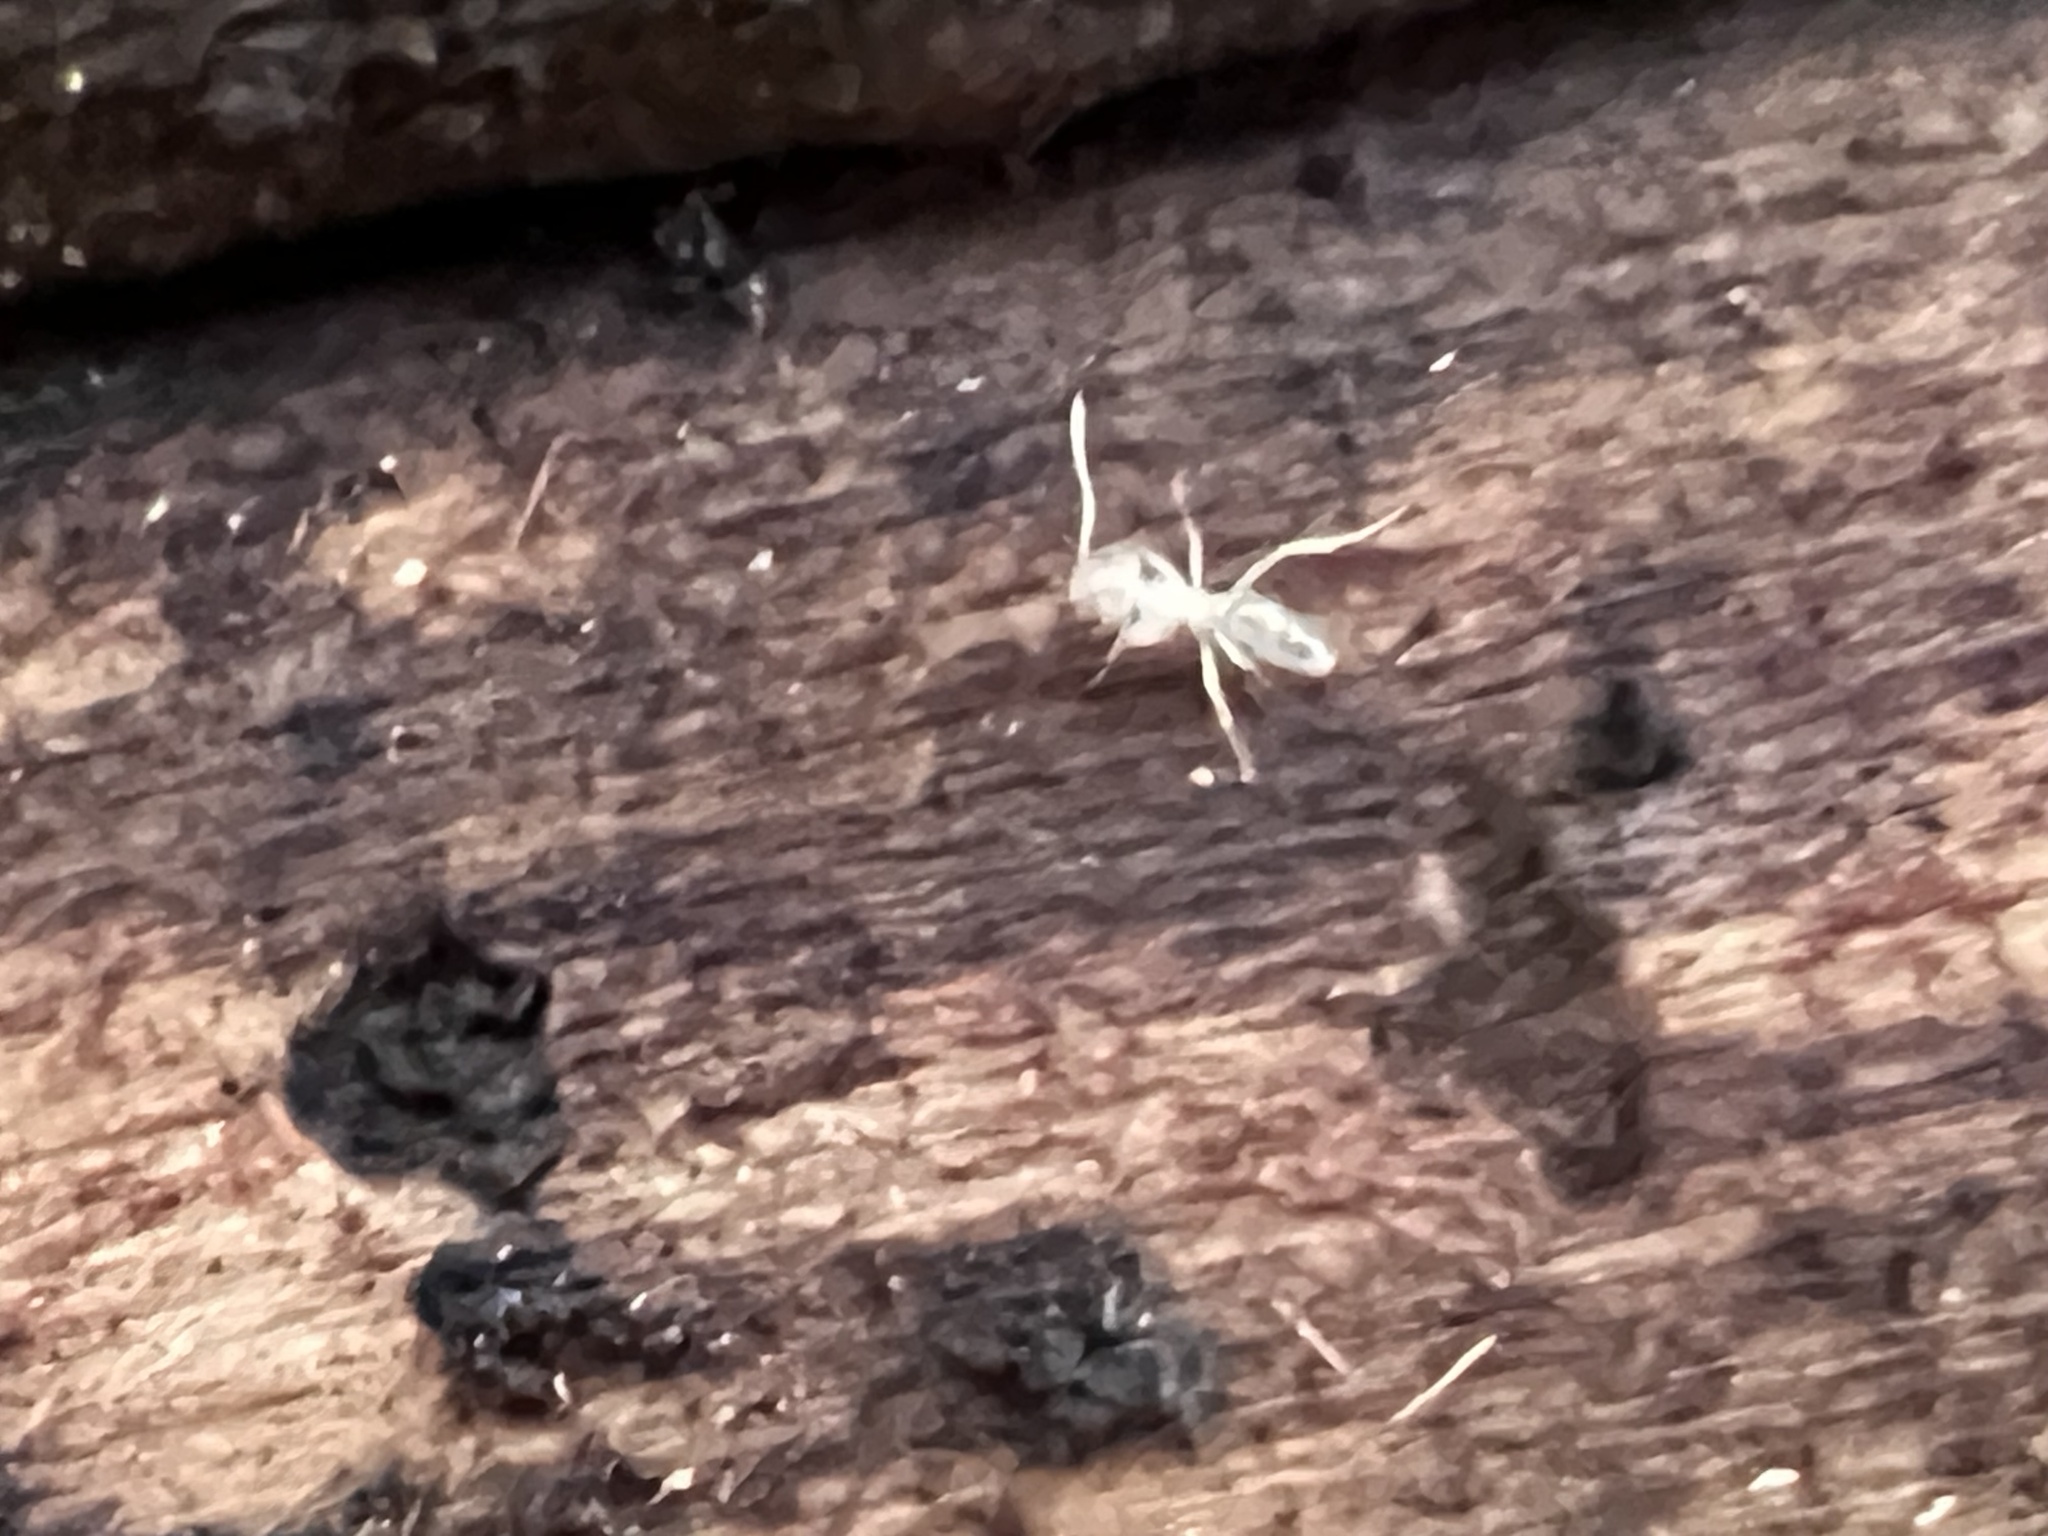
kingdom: Animalia
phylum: Arthropoda
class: Insecta
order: Hymenoptera
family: Formicidae
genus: Tapinoma
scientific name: Tapinoma sessile
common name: Odorous house ant
